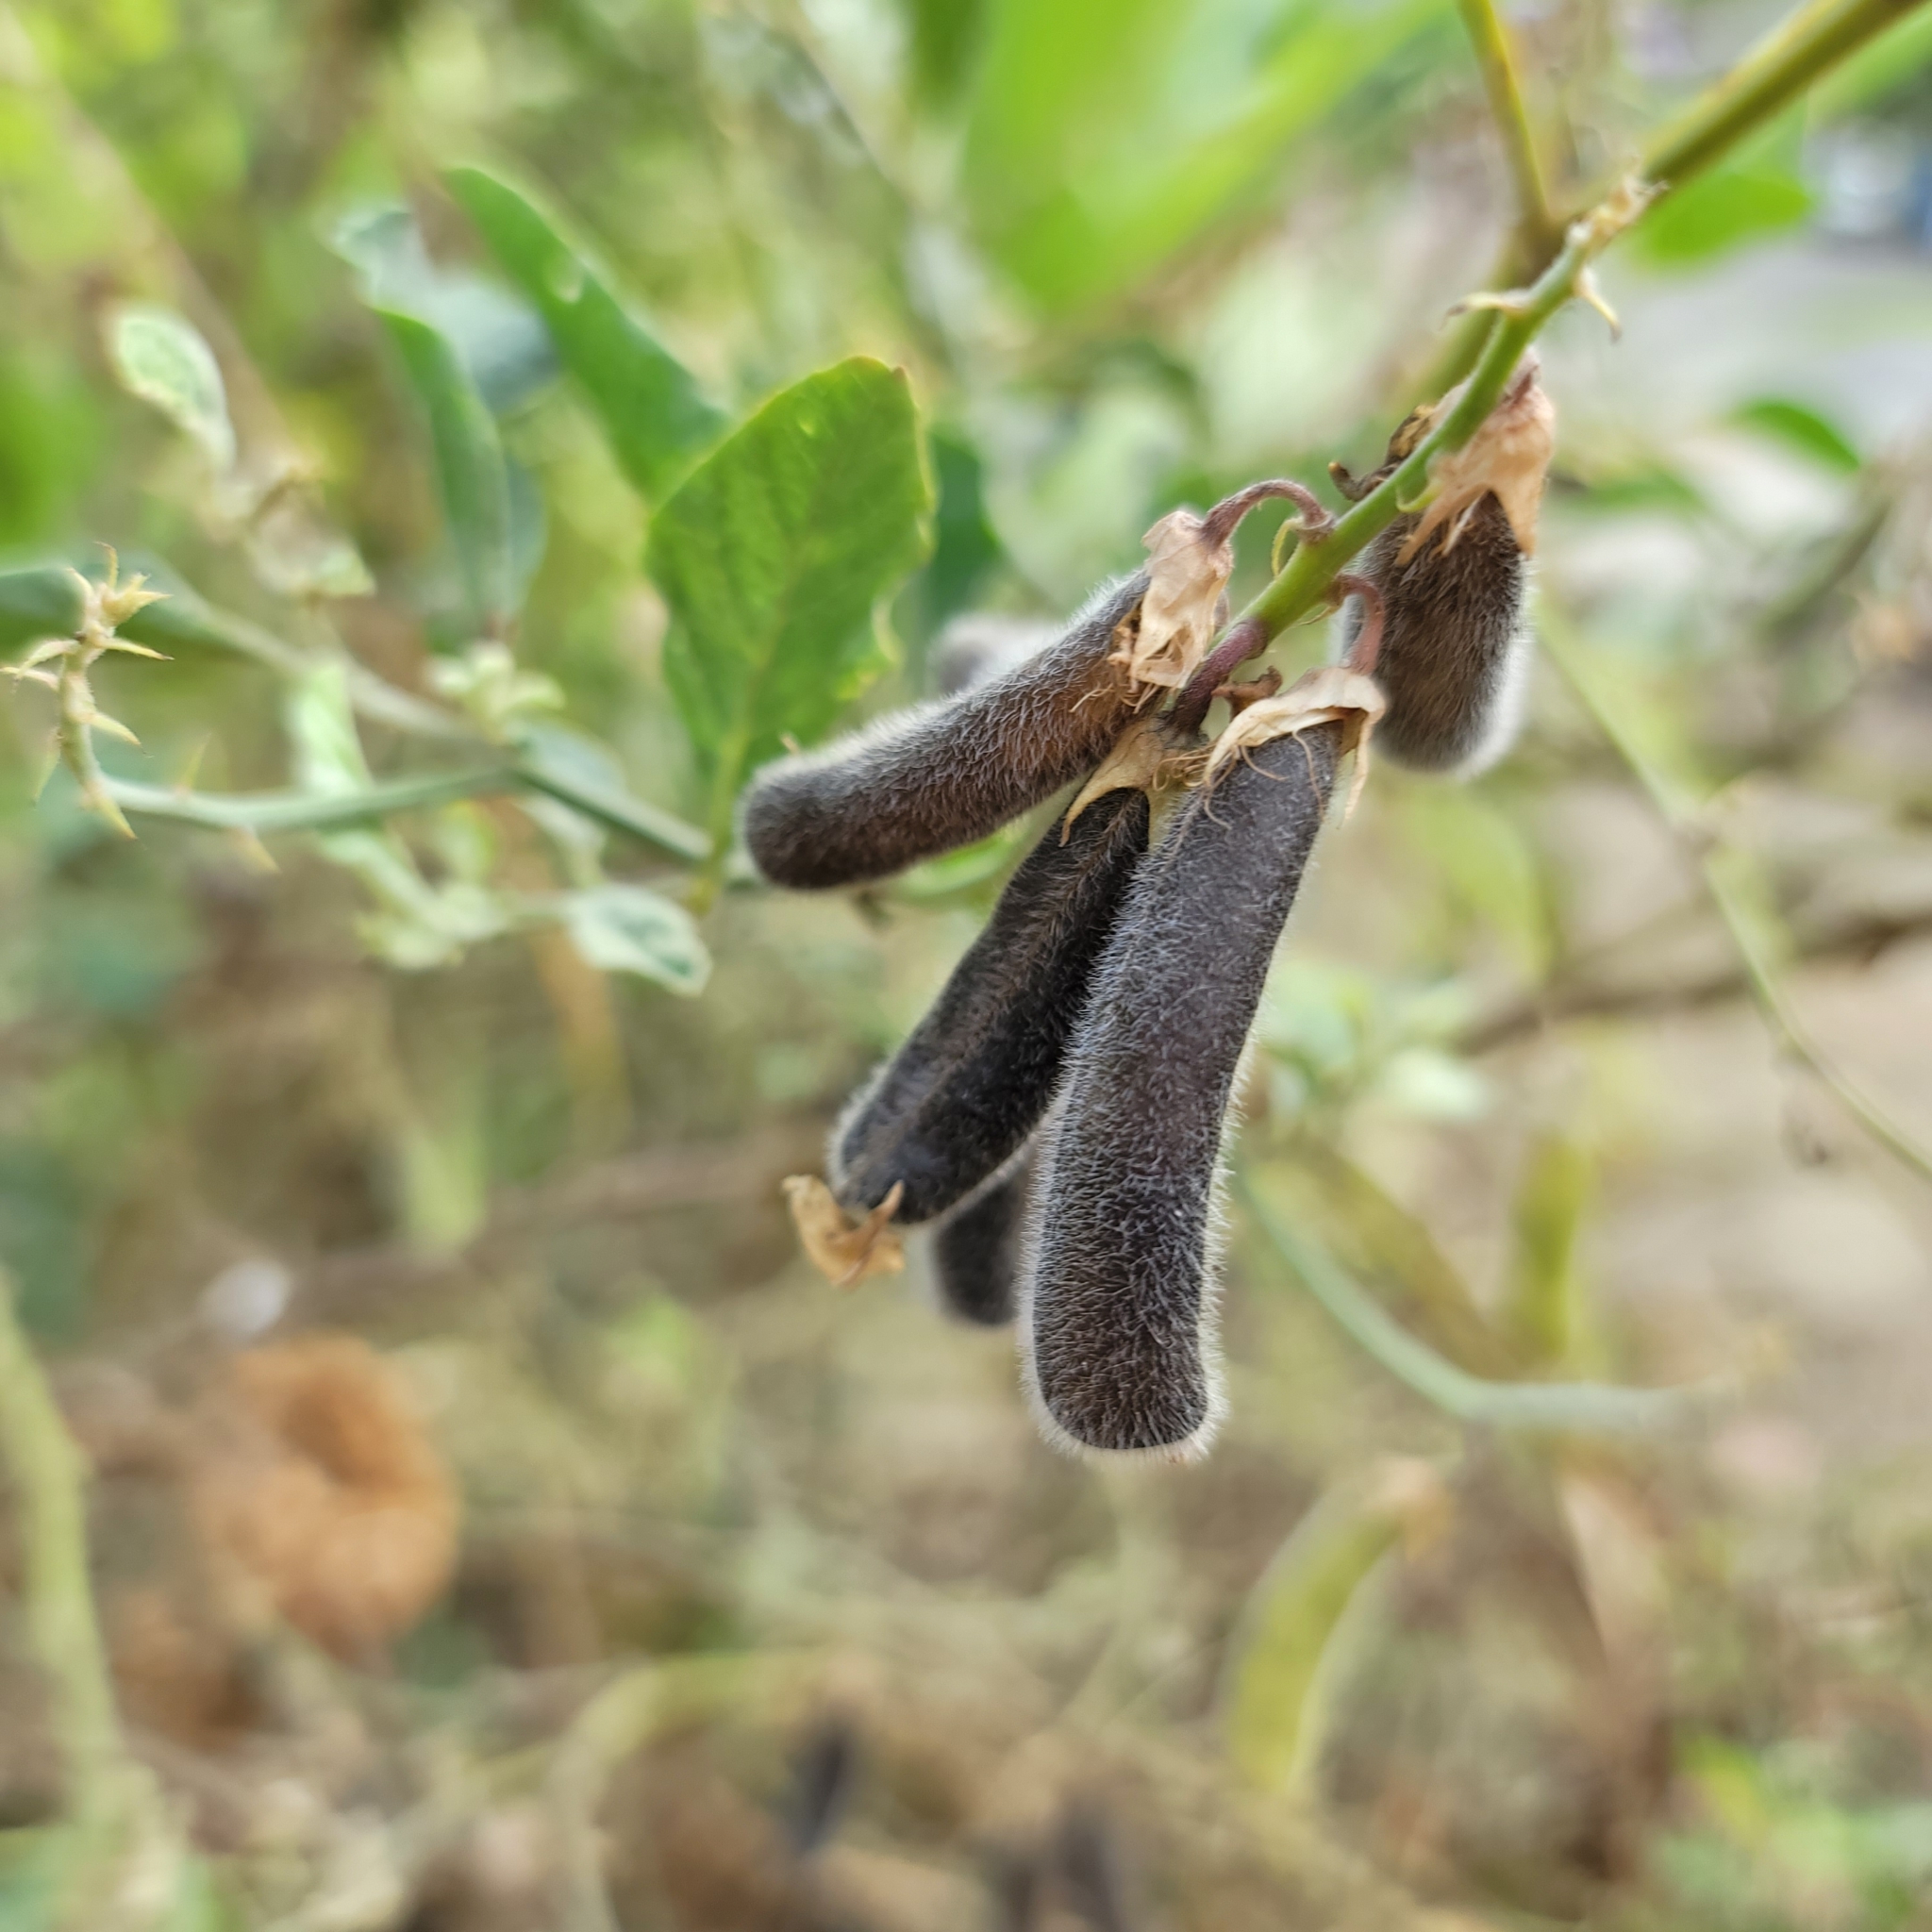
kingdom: Plantae
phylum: Tracheophyta
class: Magnoliopsida
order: Fabales
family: Fabaceae
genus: Crotalaria
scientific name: Crotalaria verrucosa
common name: Blue rattlesnake
